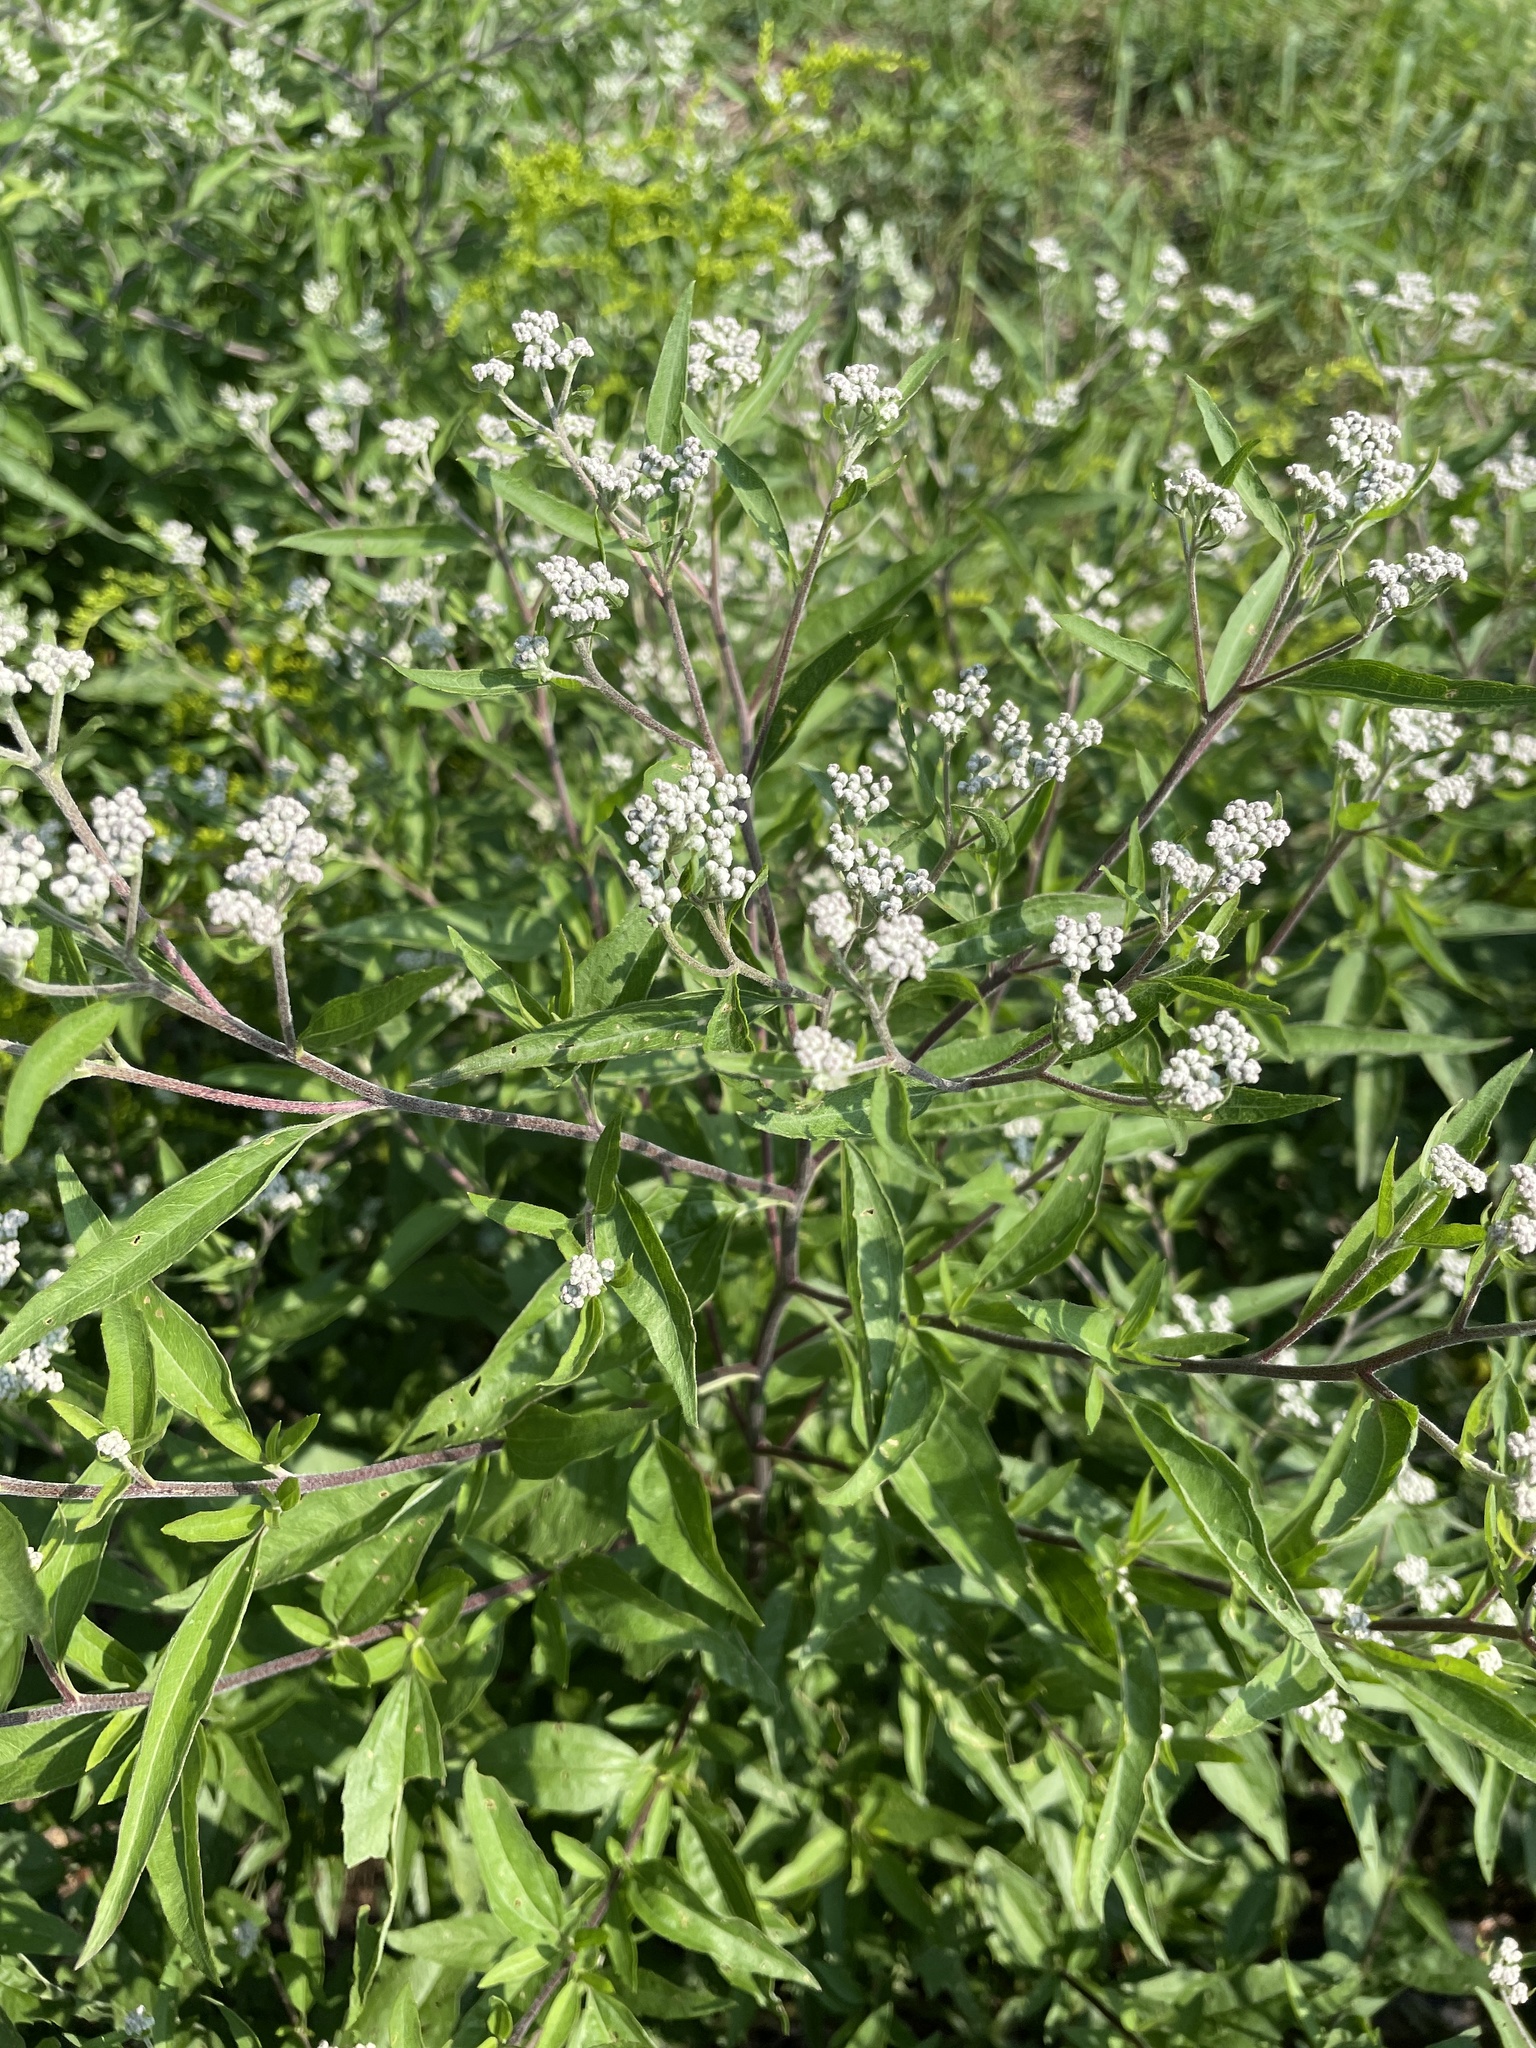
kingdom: Plantae
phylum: Tracheophyta
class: Magnoliopsida
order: Asterales
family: Asteraceae
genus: Eupatorium
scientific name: Eupatorium serotinum
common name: Late boneset
